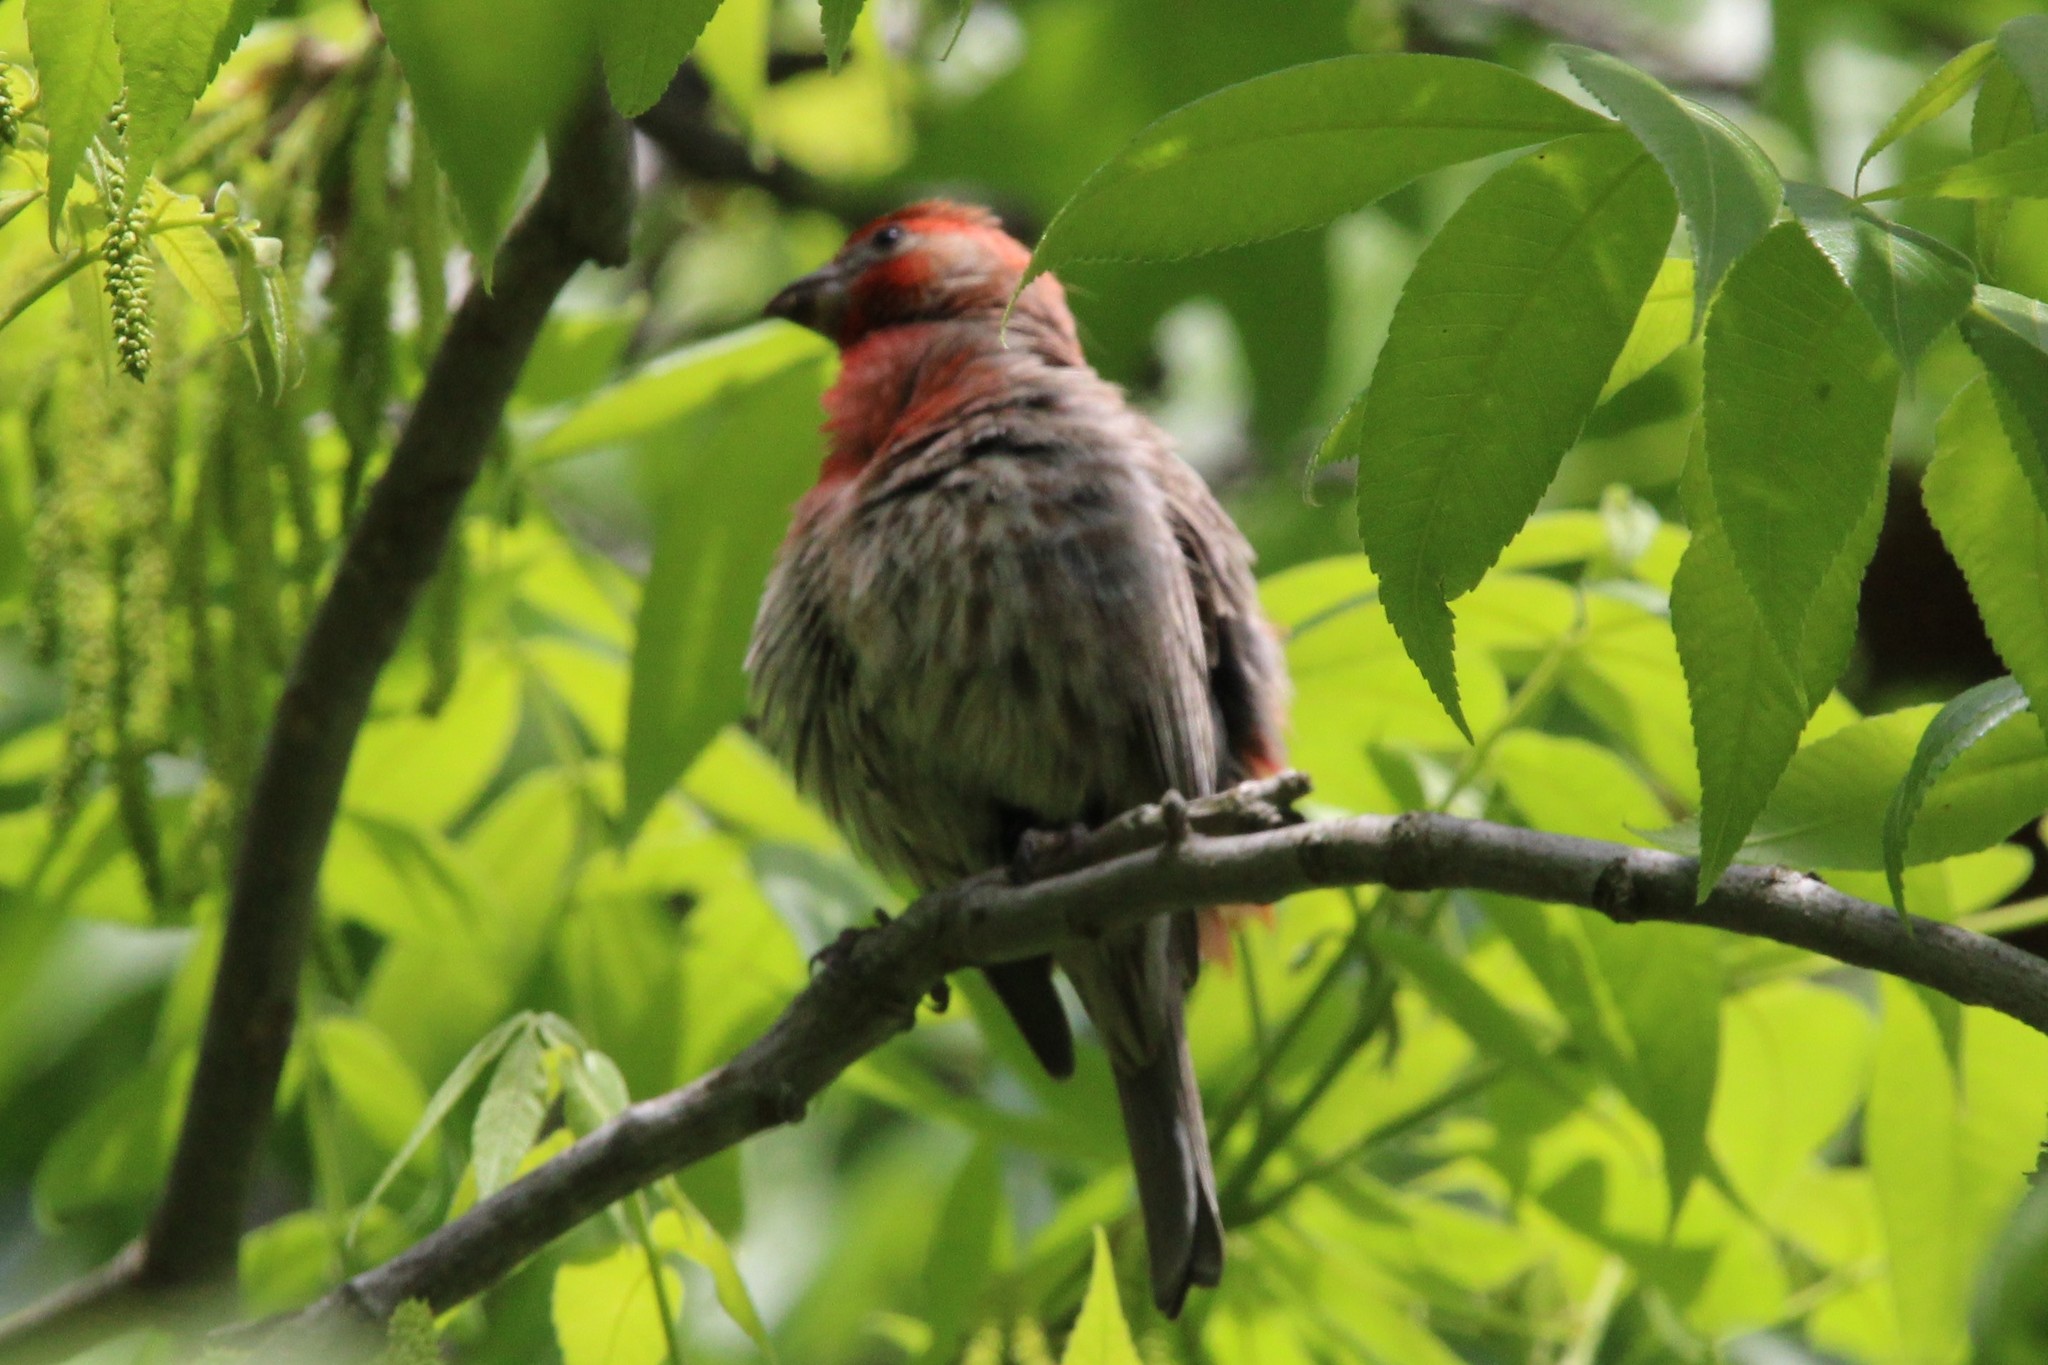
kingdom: Animalia
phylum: Chordata
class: Aves
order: Passeriformes
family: Fringillidae
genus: Haemorhous
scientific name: Haemorhous mexicanus
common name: House finch
